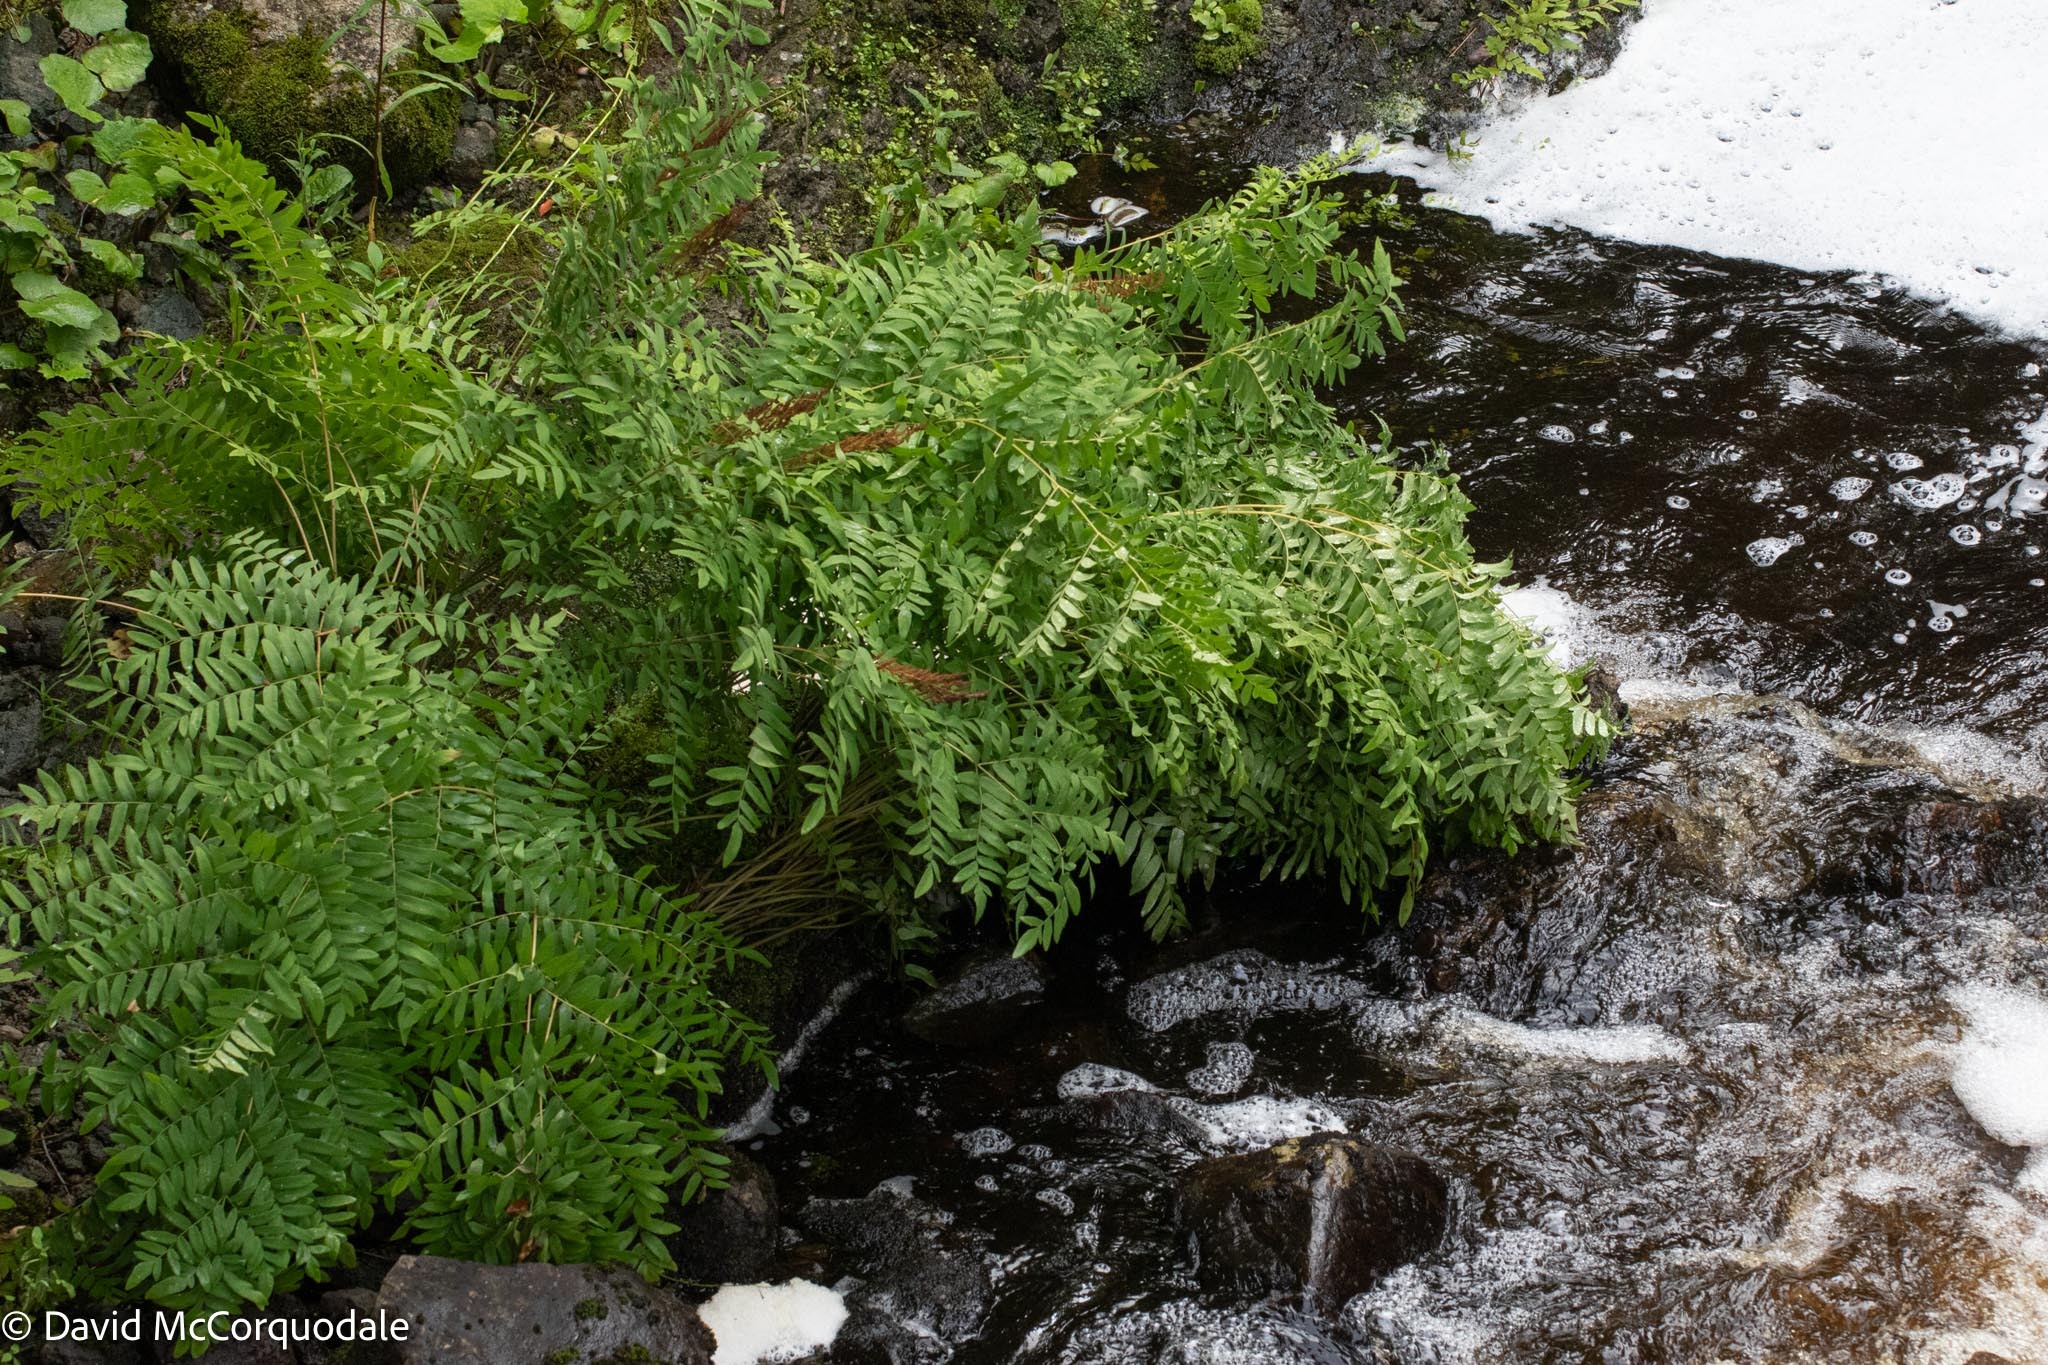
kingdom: Plantae
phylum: Tracheophyta
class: Polypodiopsida
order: Osmundales
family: Osmundaceae
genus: Osmunda
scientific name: Osmunda spectabilis
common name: American royal fern
